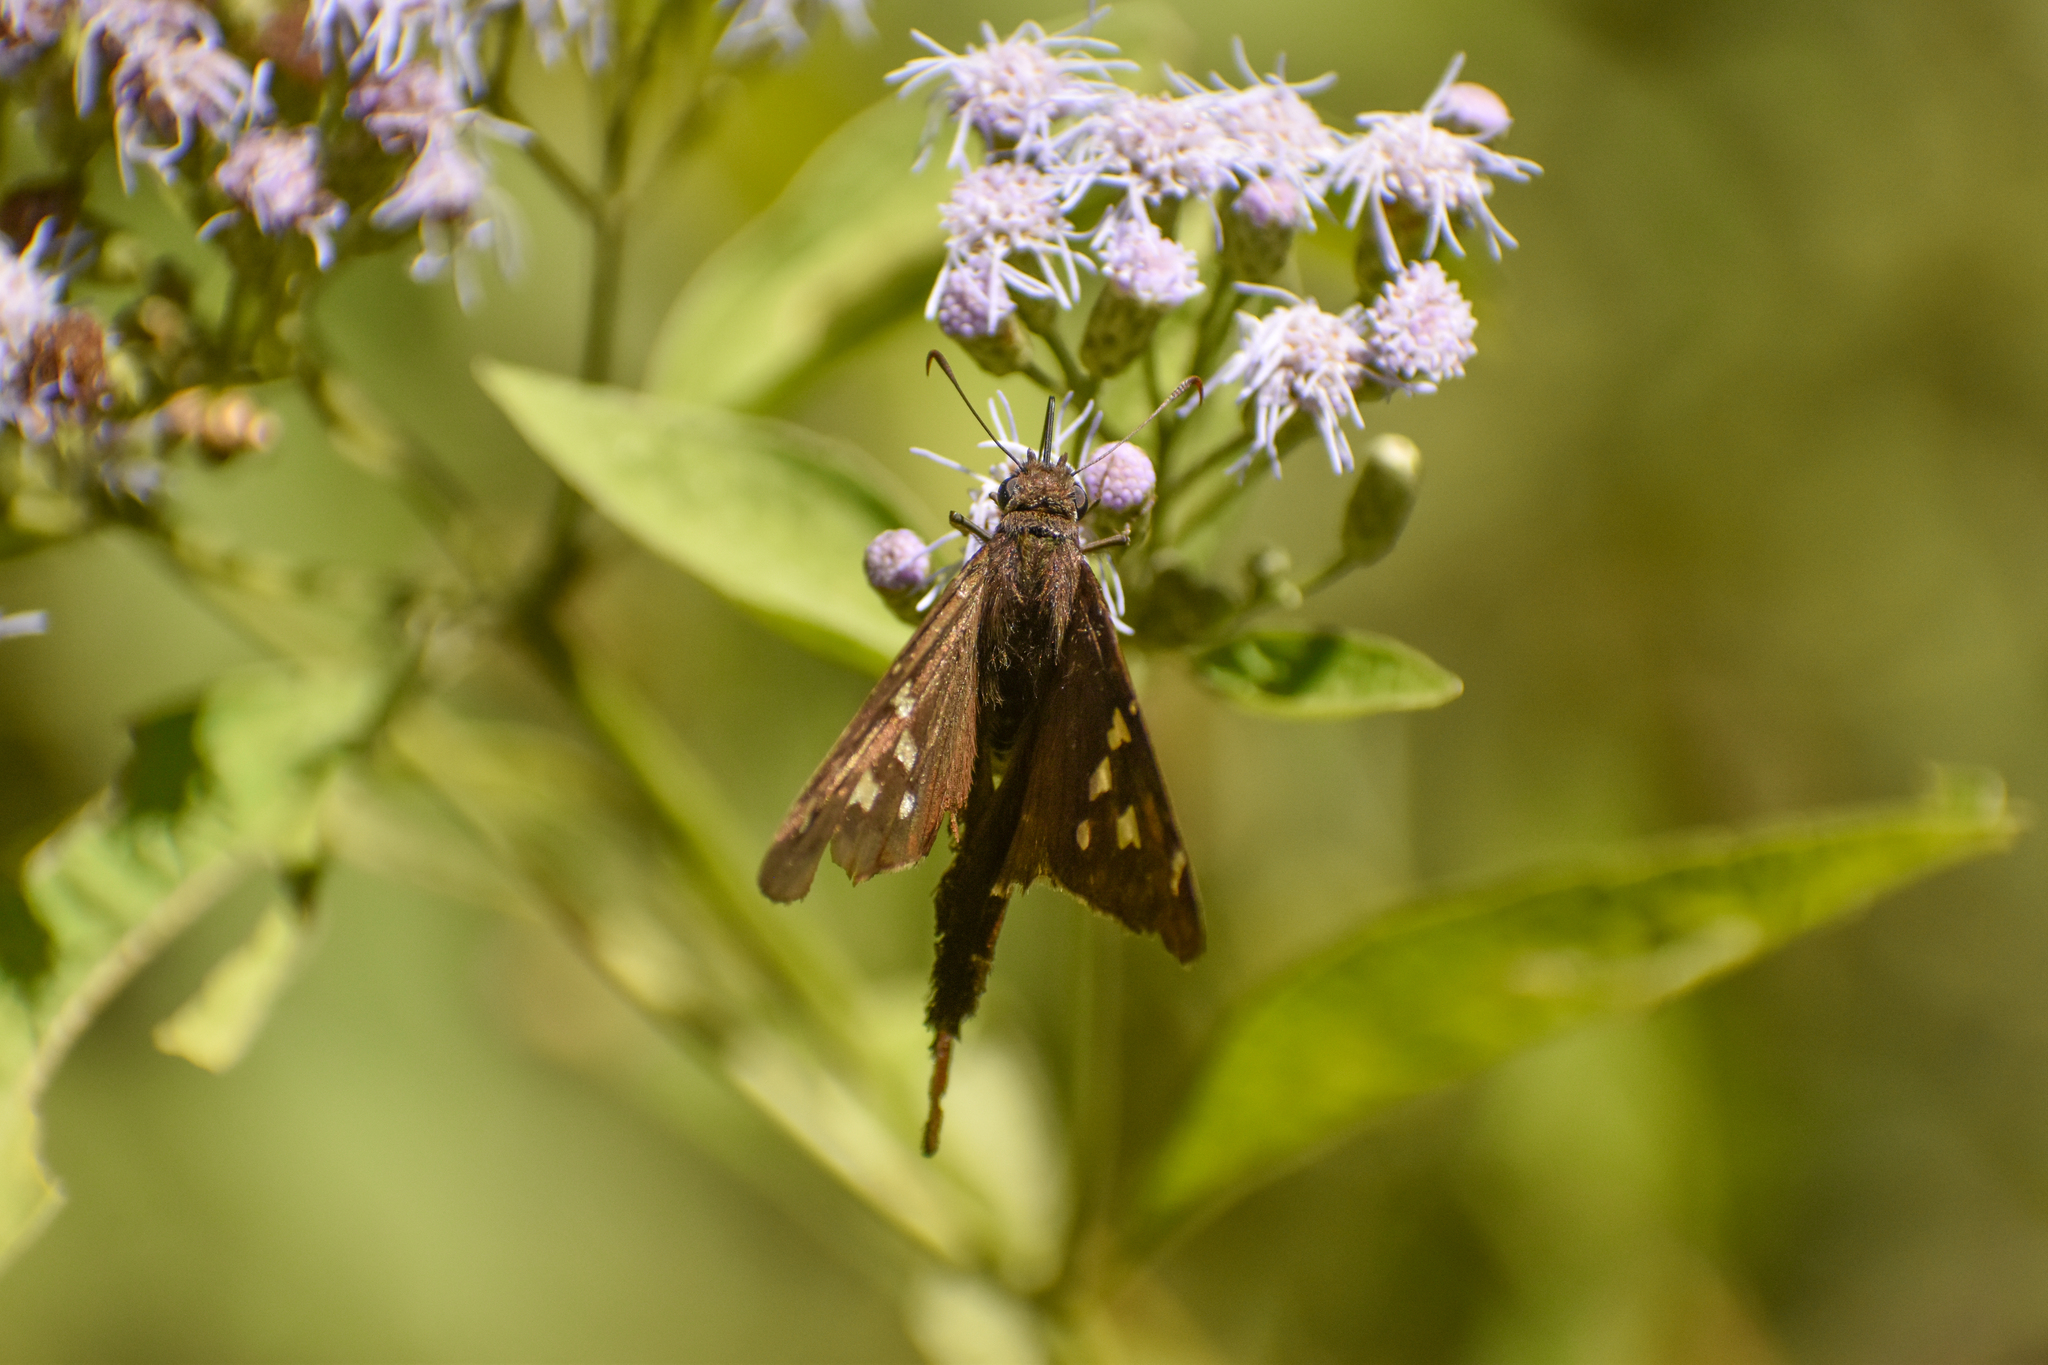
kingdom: Animalia
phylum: Arthropoda
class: Insecta
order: Lepidoptera
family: Hesperiidae
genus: Chioides
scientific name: Chioides catillus
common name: Silverbanded skipper
